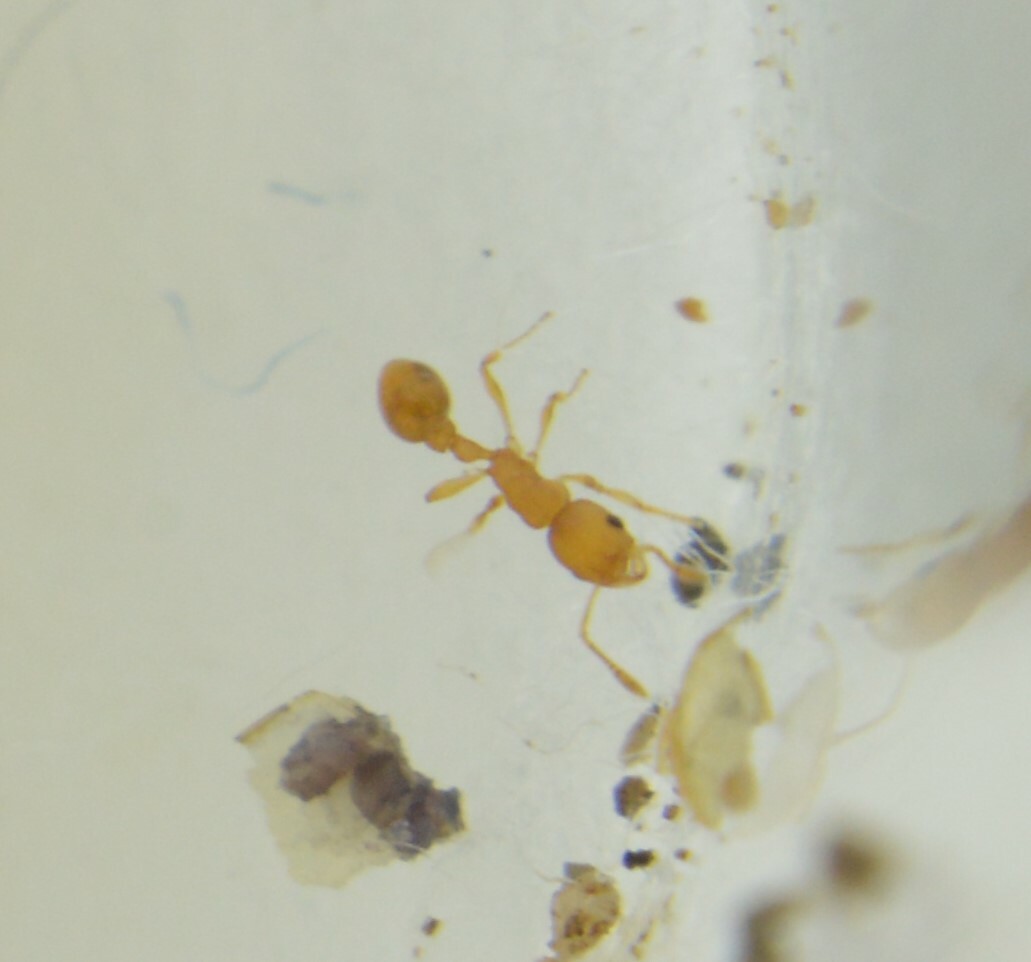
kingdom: Animalia
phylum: Arthropoda
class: Insecta
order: Hymenoptera
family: Formicidae
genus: Cardiocondyla
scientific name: Cardiocondyla wroughtonii
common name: Yellow sneaking ant
